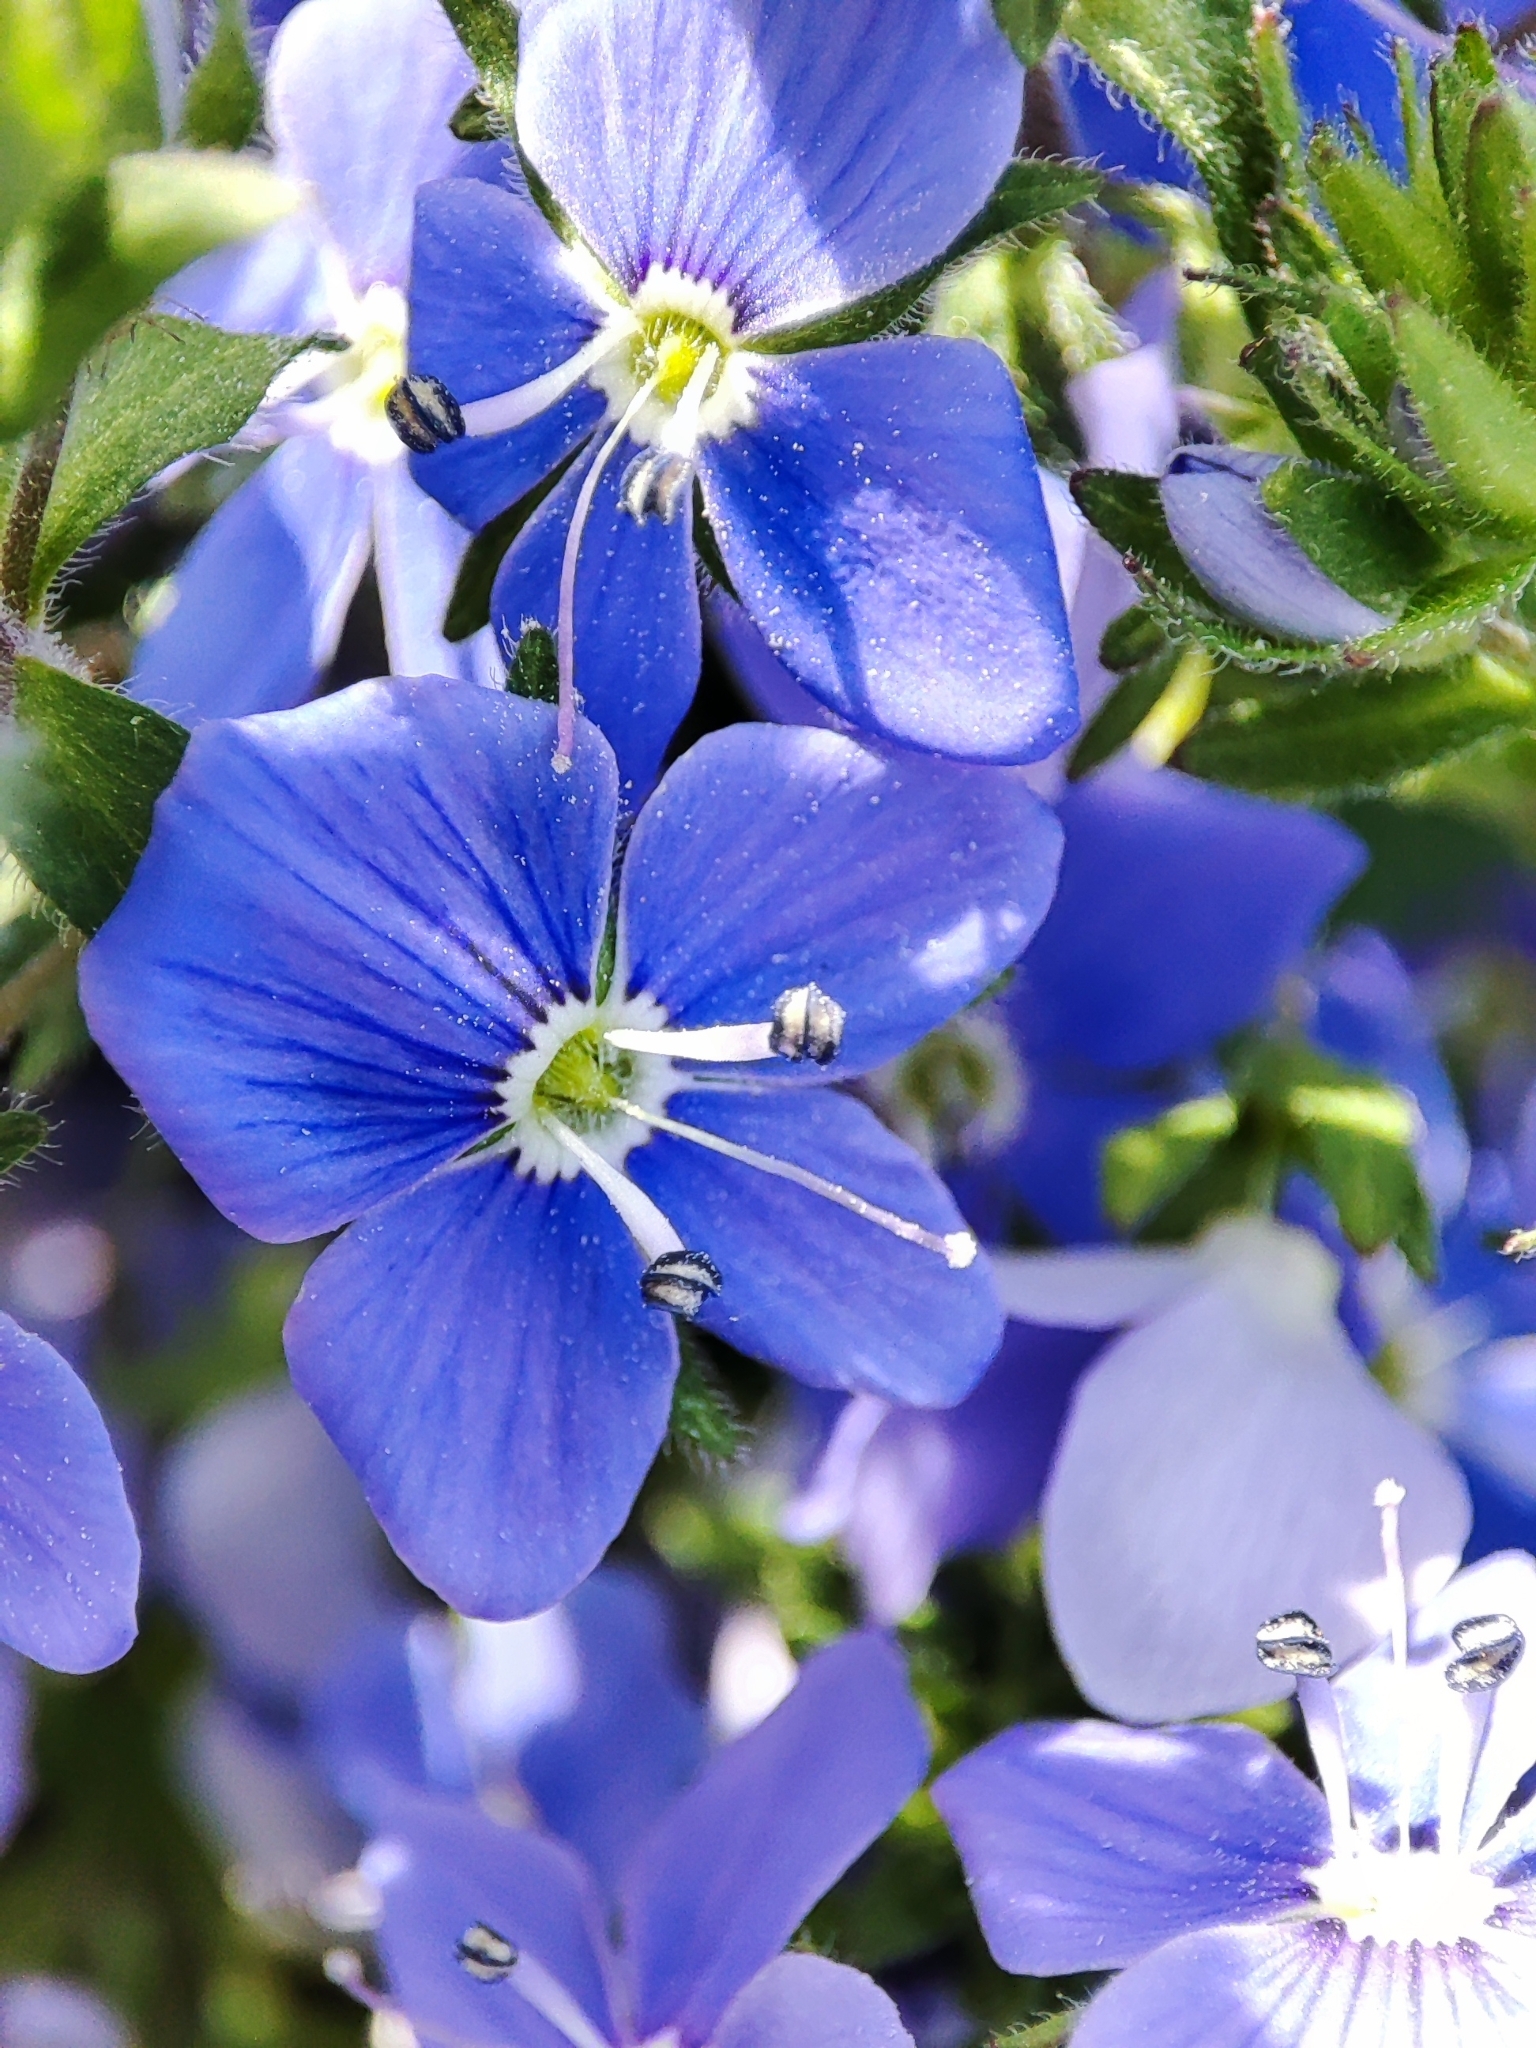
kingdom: Plantae
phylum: Tracheophyta
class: Magnoliopsida
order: Lamiales
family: Plantaginaceae
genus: Veronica
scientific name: Veronica
